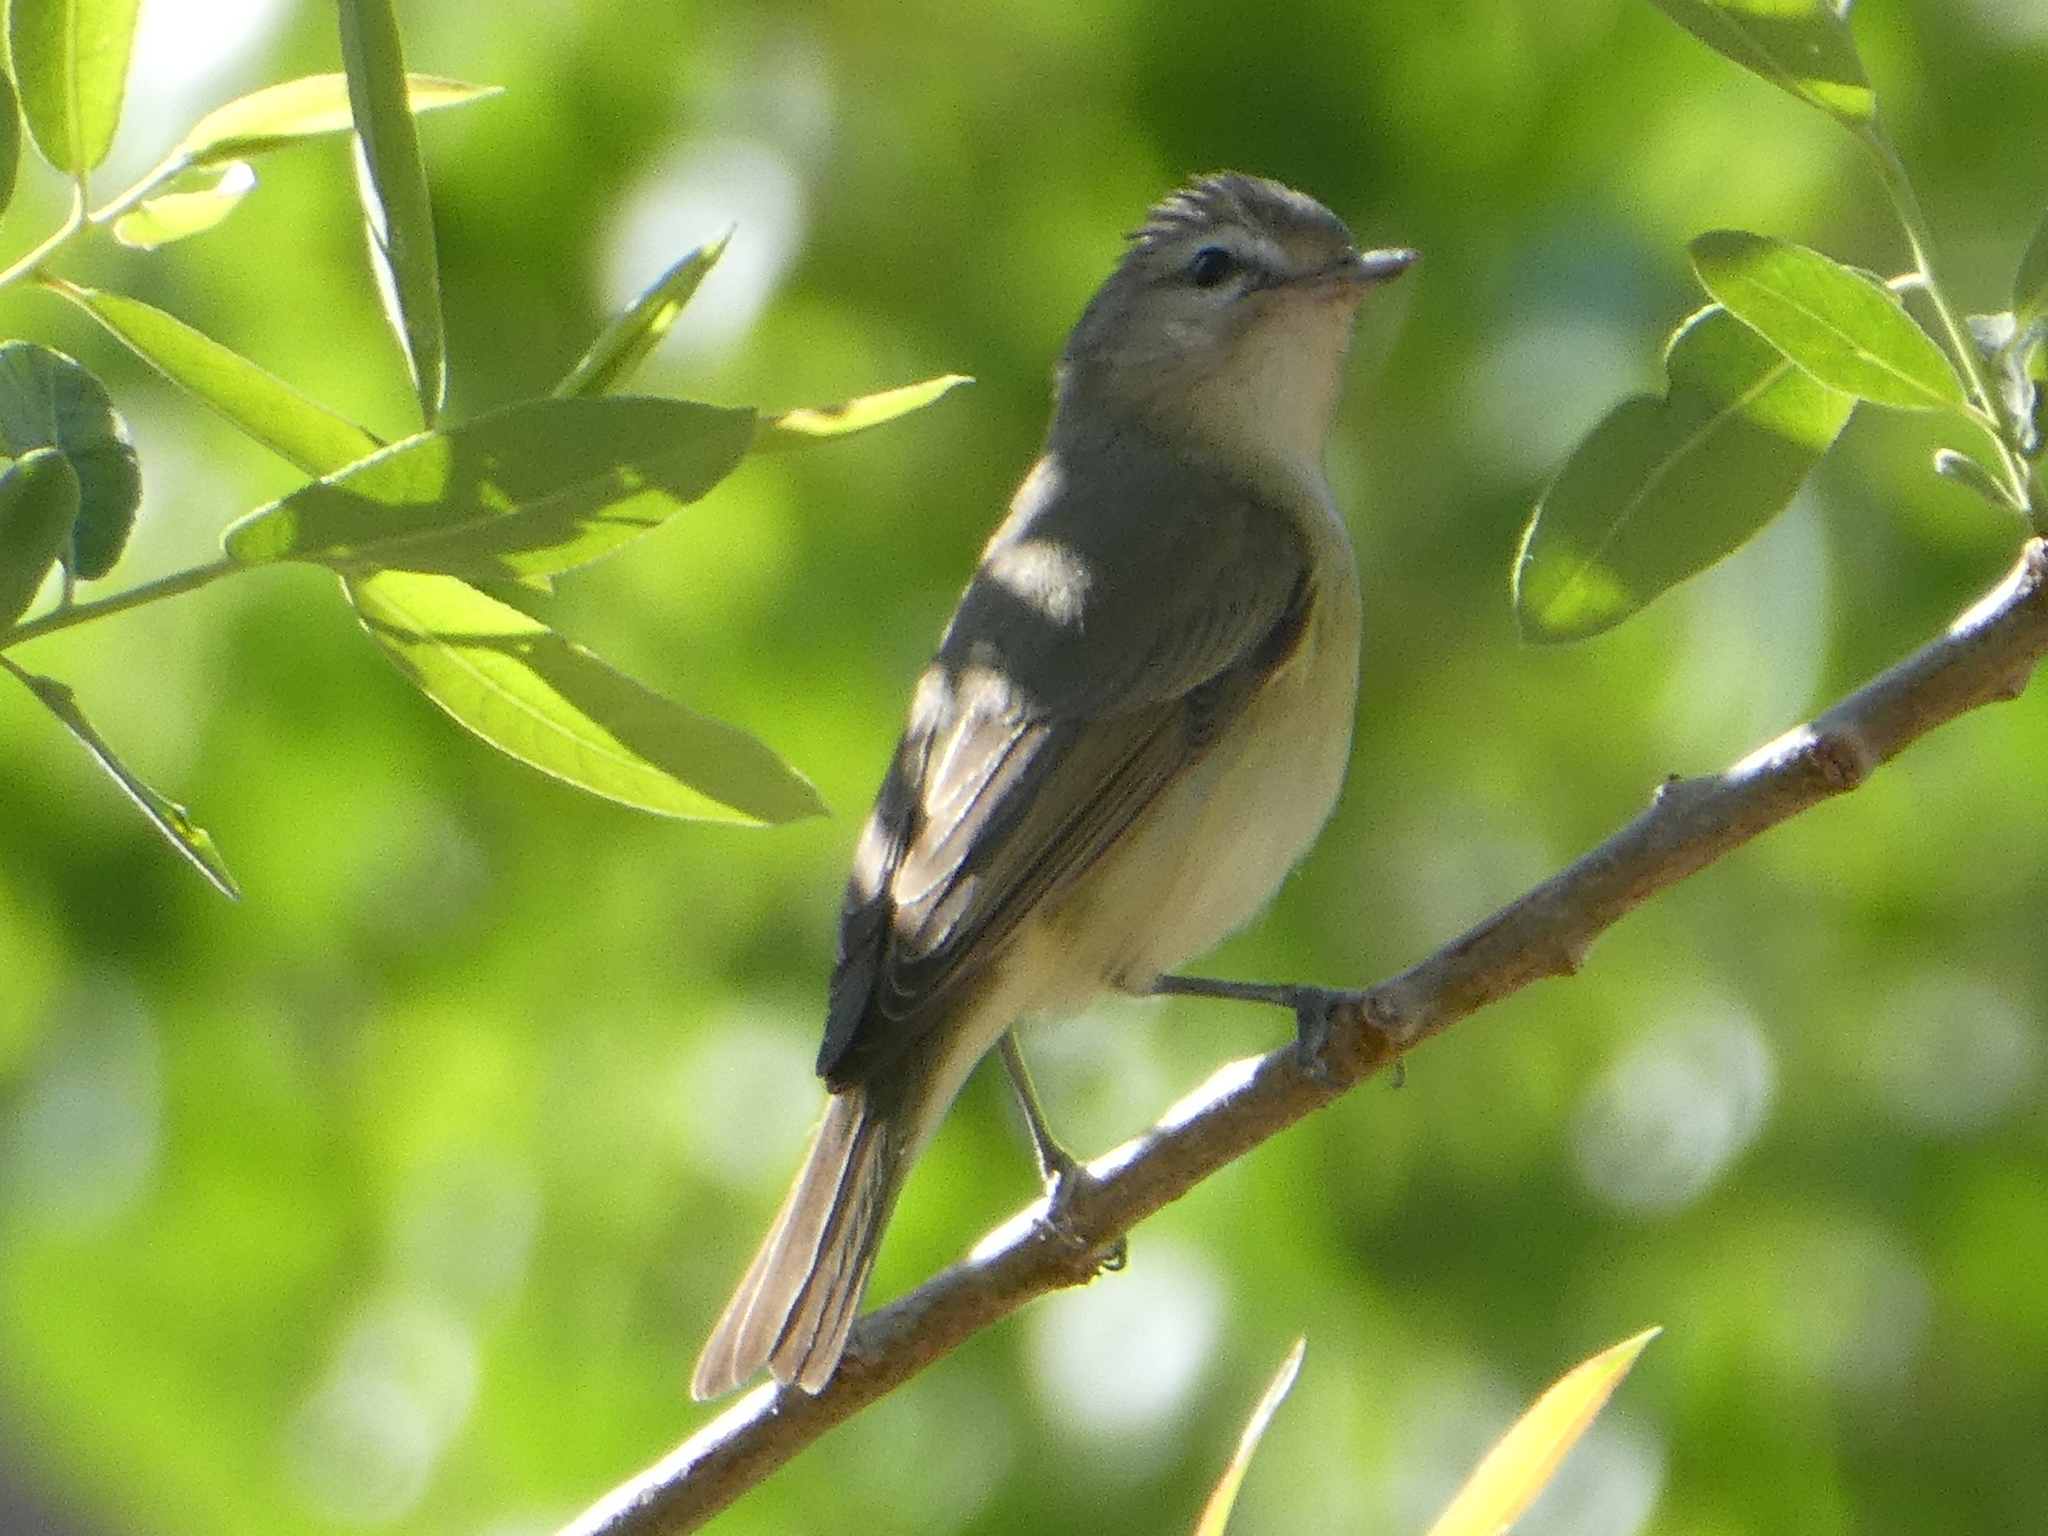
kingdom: Animalia
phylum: Chordata
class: Aves
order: Passeriformes
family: Vireonidae
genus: Vireo
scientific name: Vireo gilvus
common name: Warbling vireo
